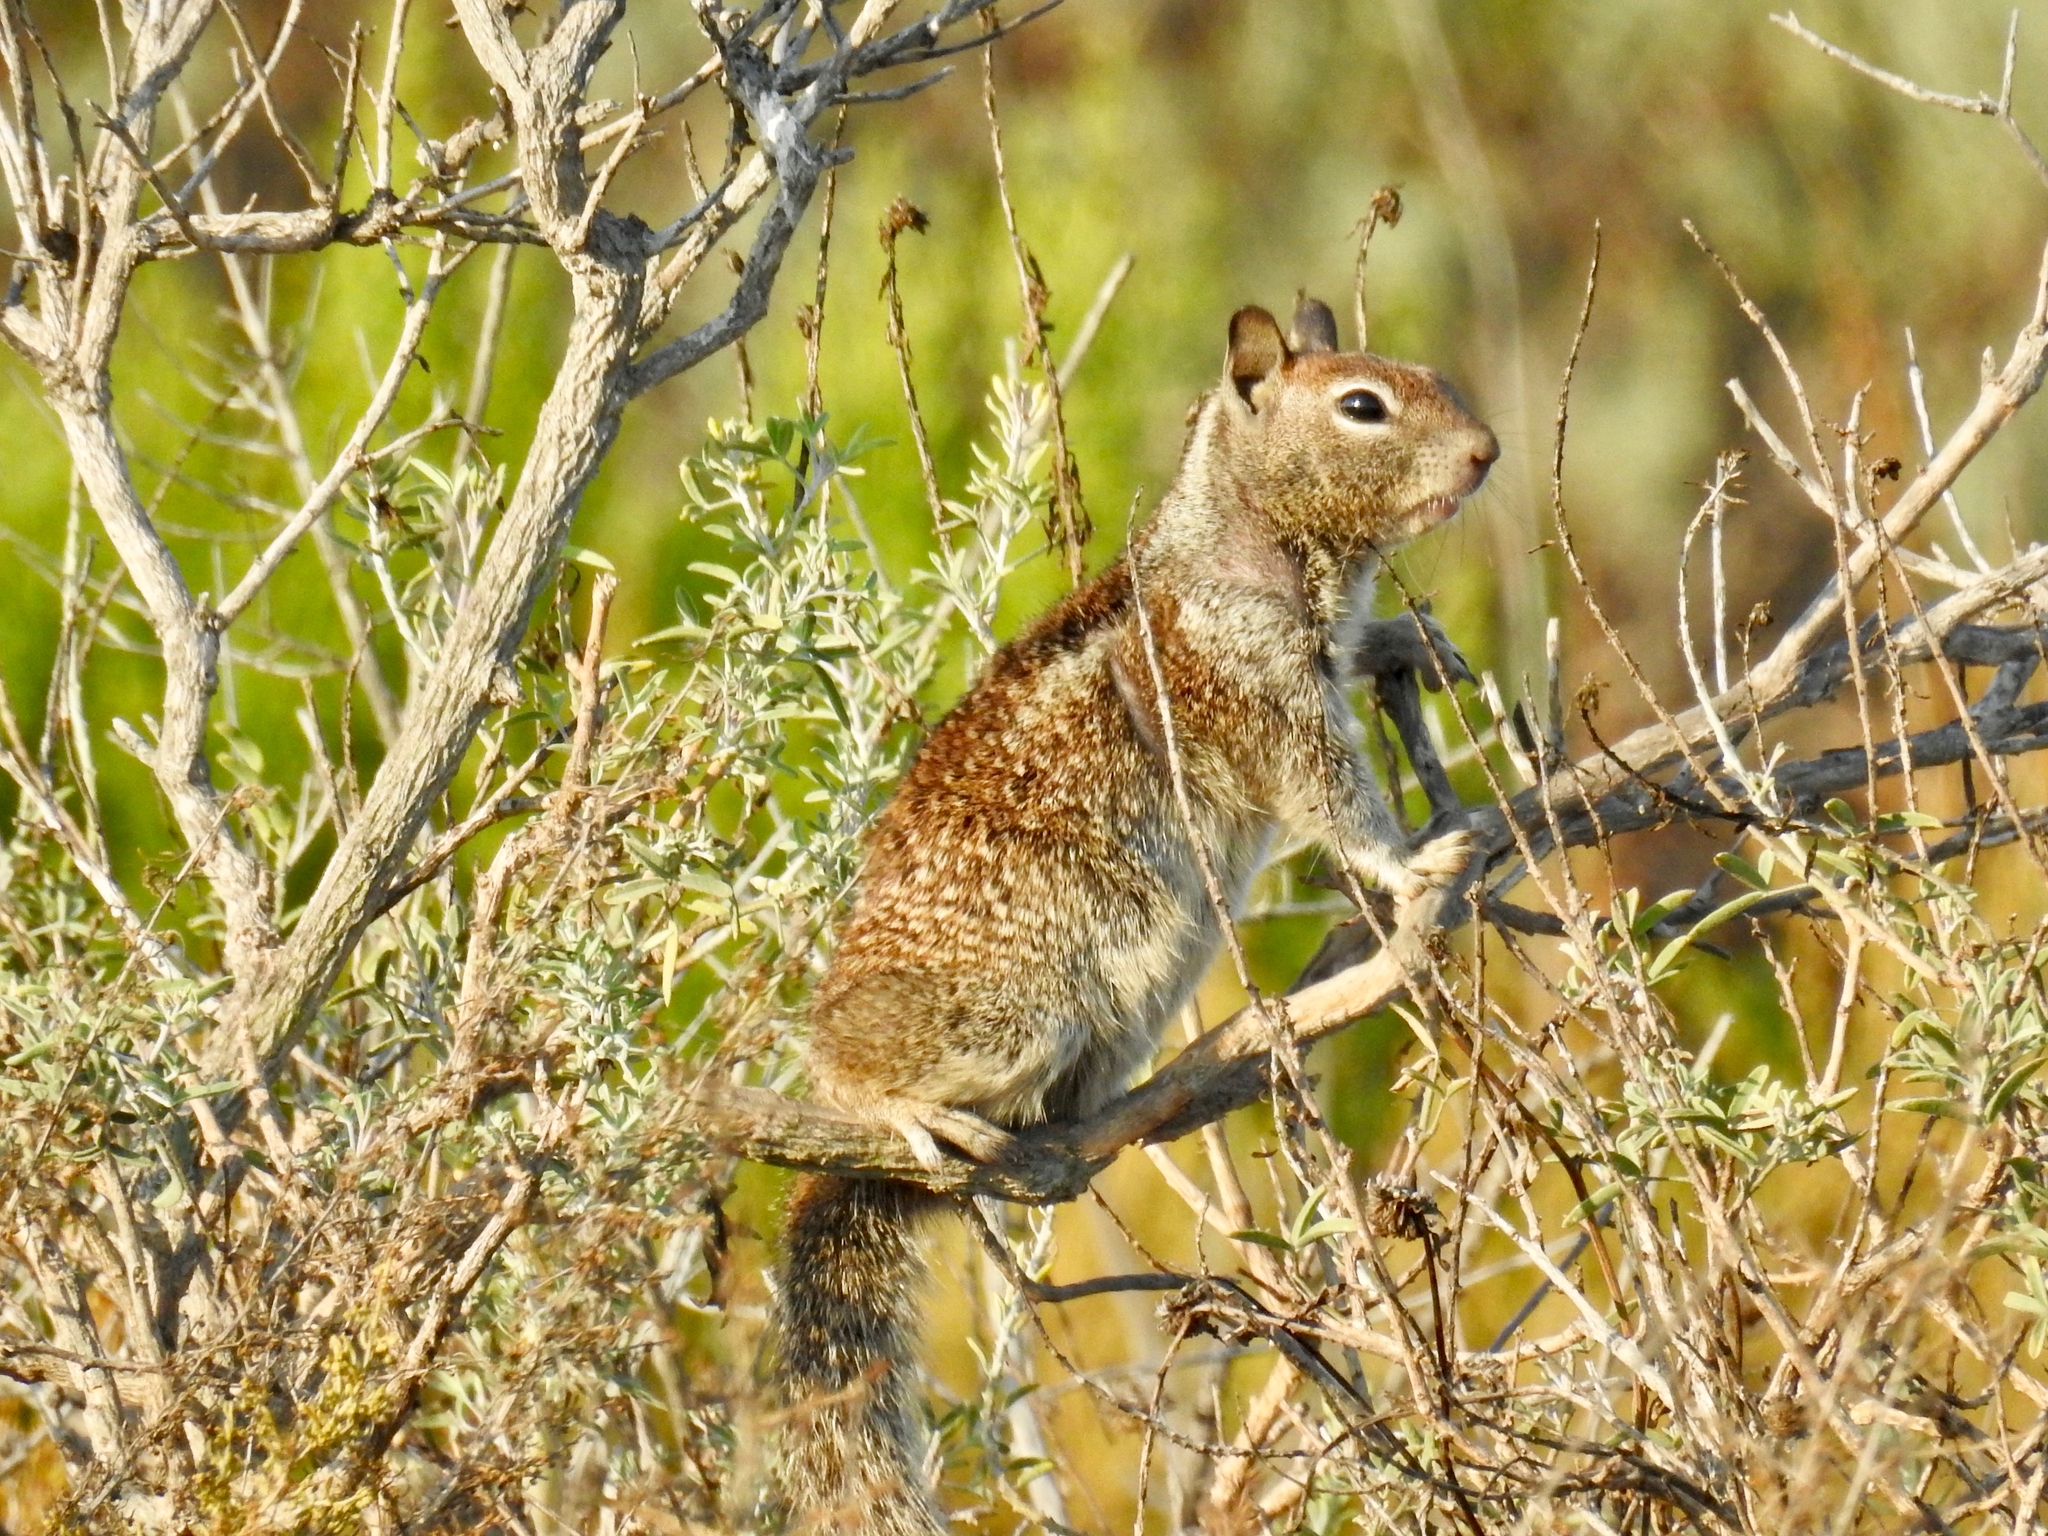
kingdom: Animalia
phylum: Chordata
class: Mammalia
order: Rodentia
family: Sciuridae
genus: Otospermophilus
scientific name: Otospermophilus beecheyi
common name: California ground squirrel
